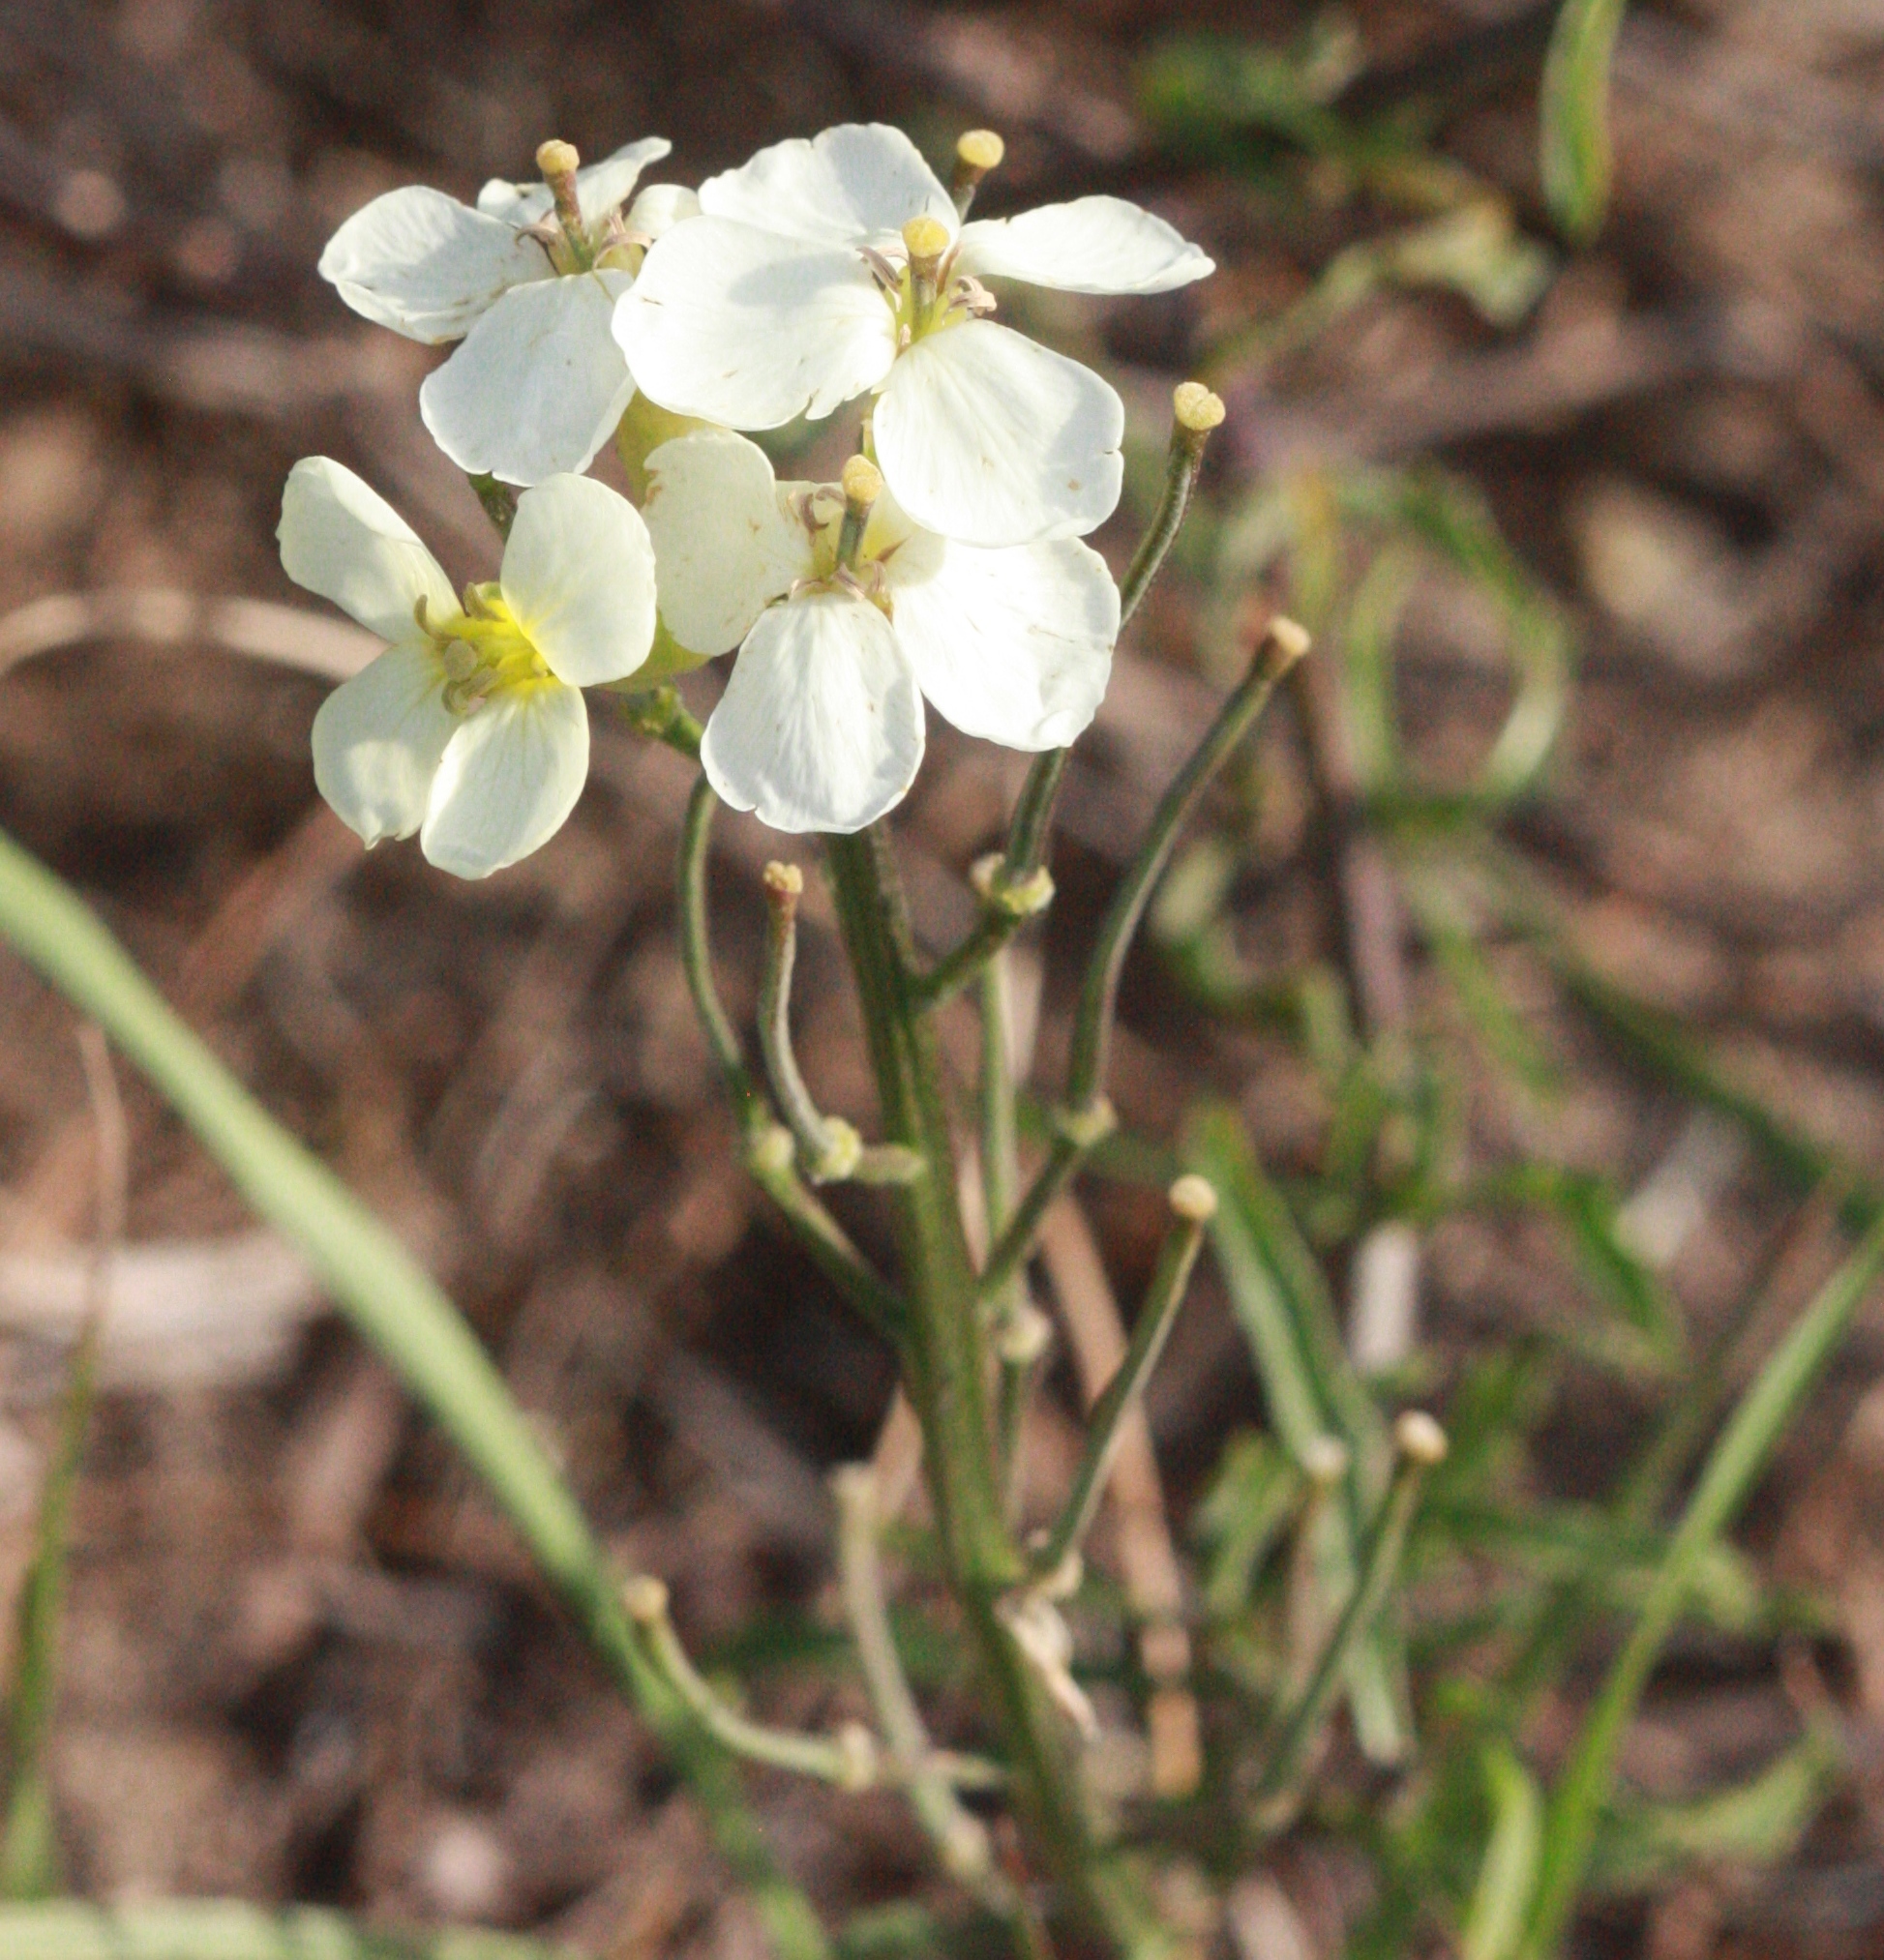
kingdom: Plantae
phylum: Tracheophyta
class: Magnoliopsida
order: Brassicales
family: Brassicaceae
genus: Erysimum
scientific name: Erysimum franciscanum
